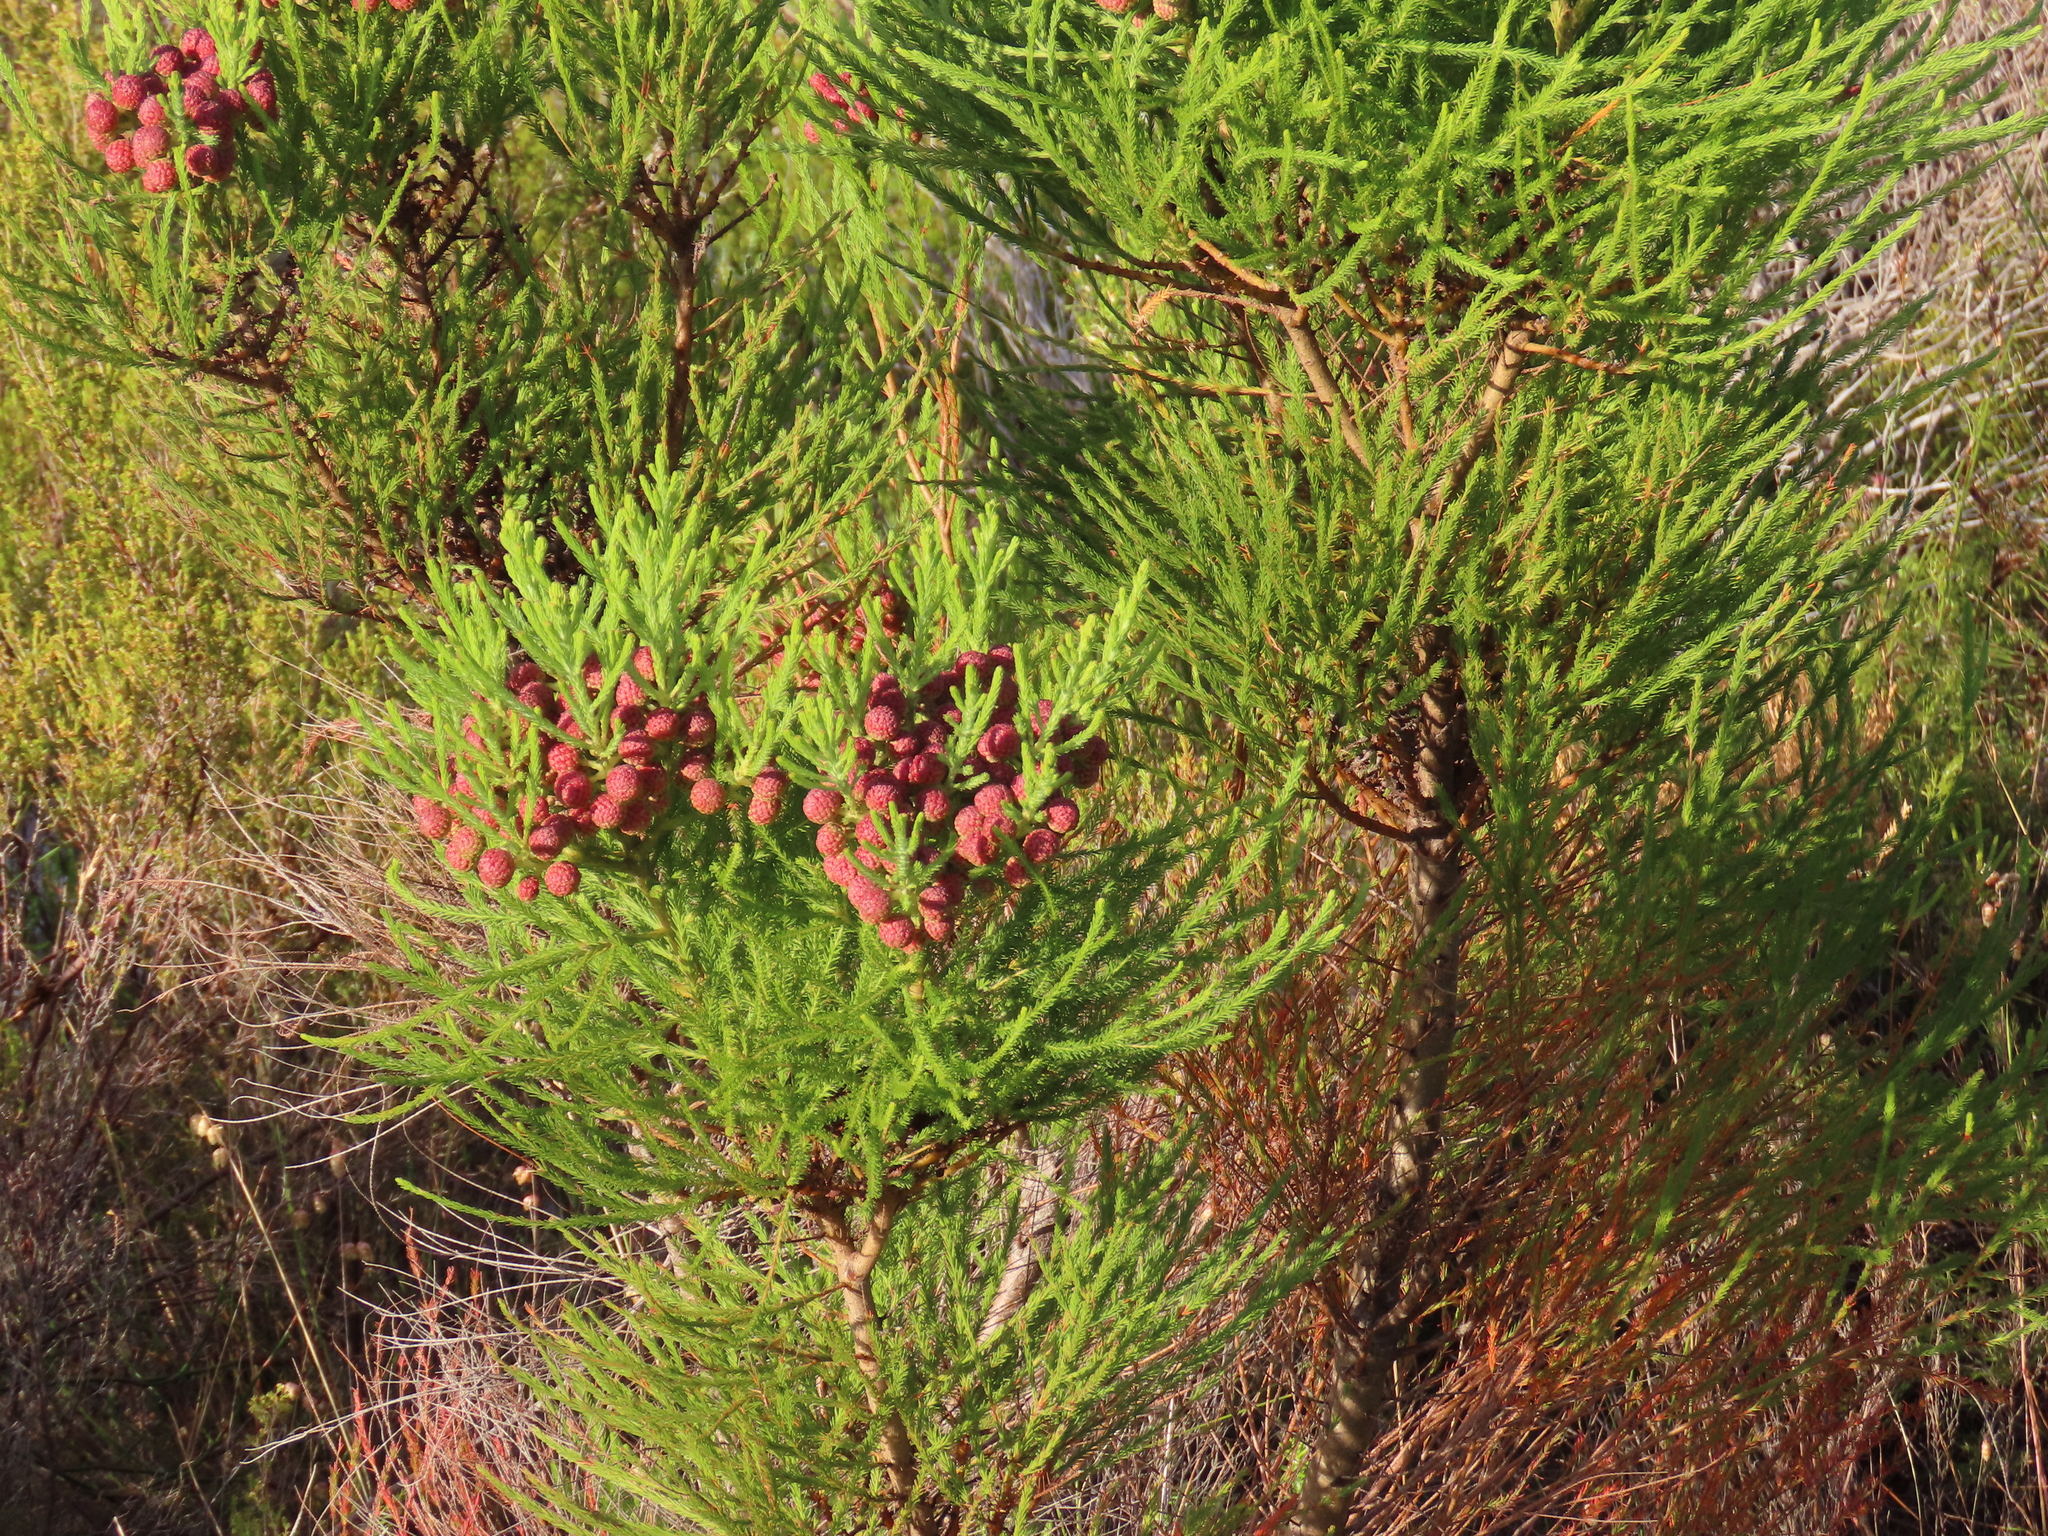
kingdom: Plantae
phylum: Tracheophyta
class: Magnoliopsida
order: Bruniales
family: Bruniaceae
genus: Berzelia
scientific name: Berzelia lanuginosa
